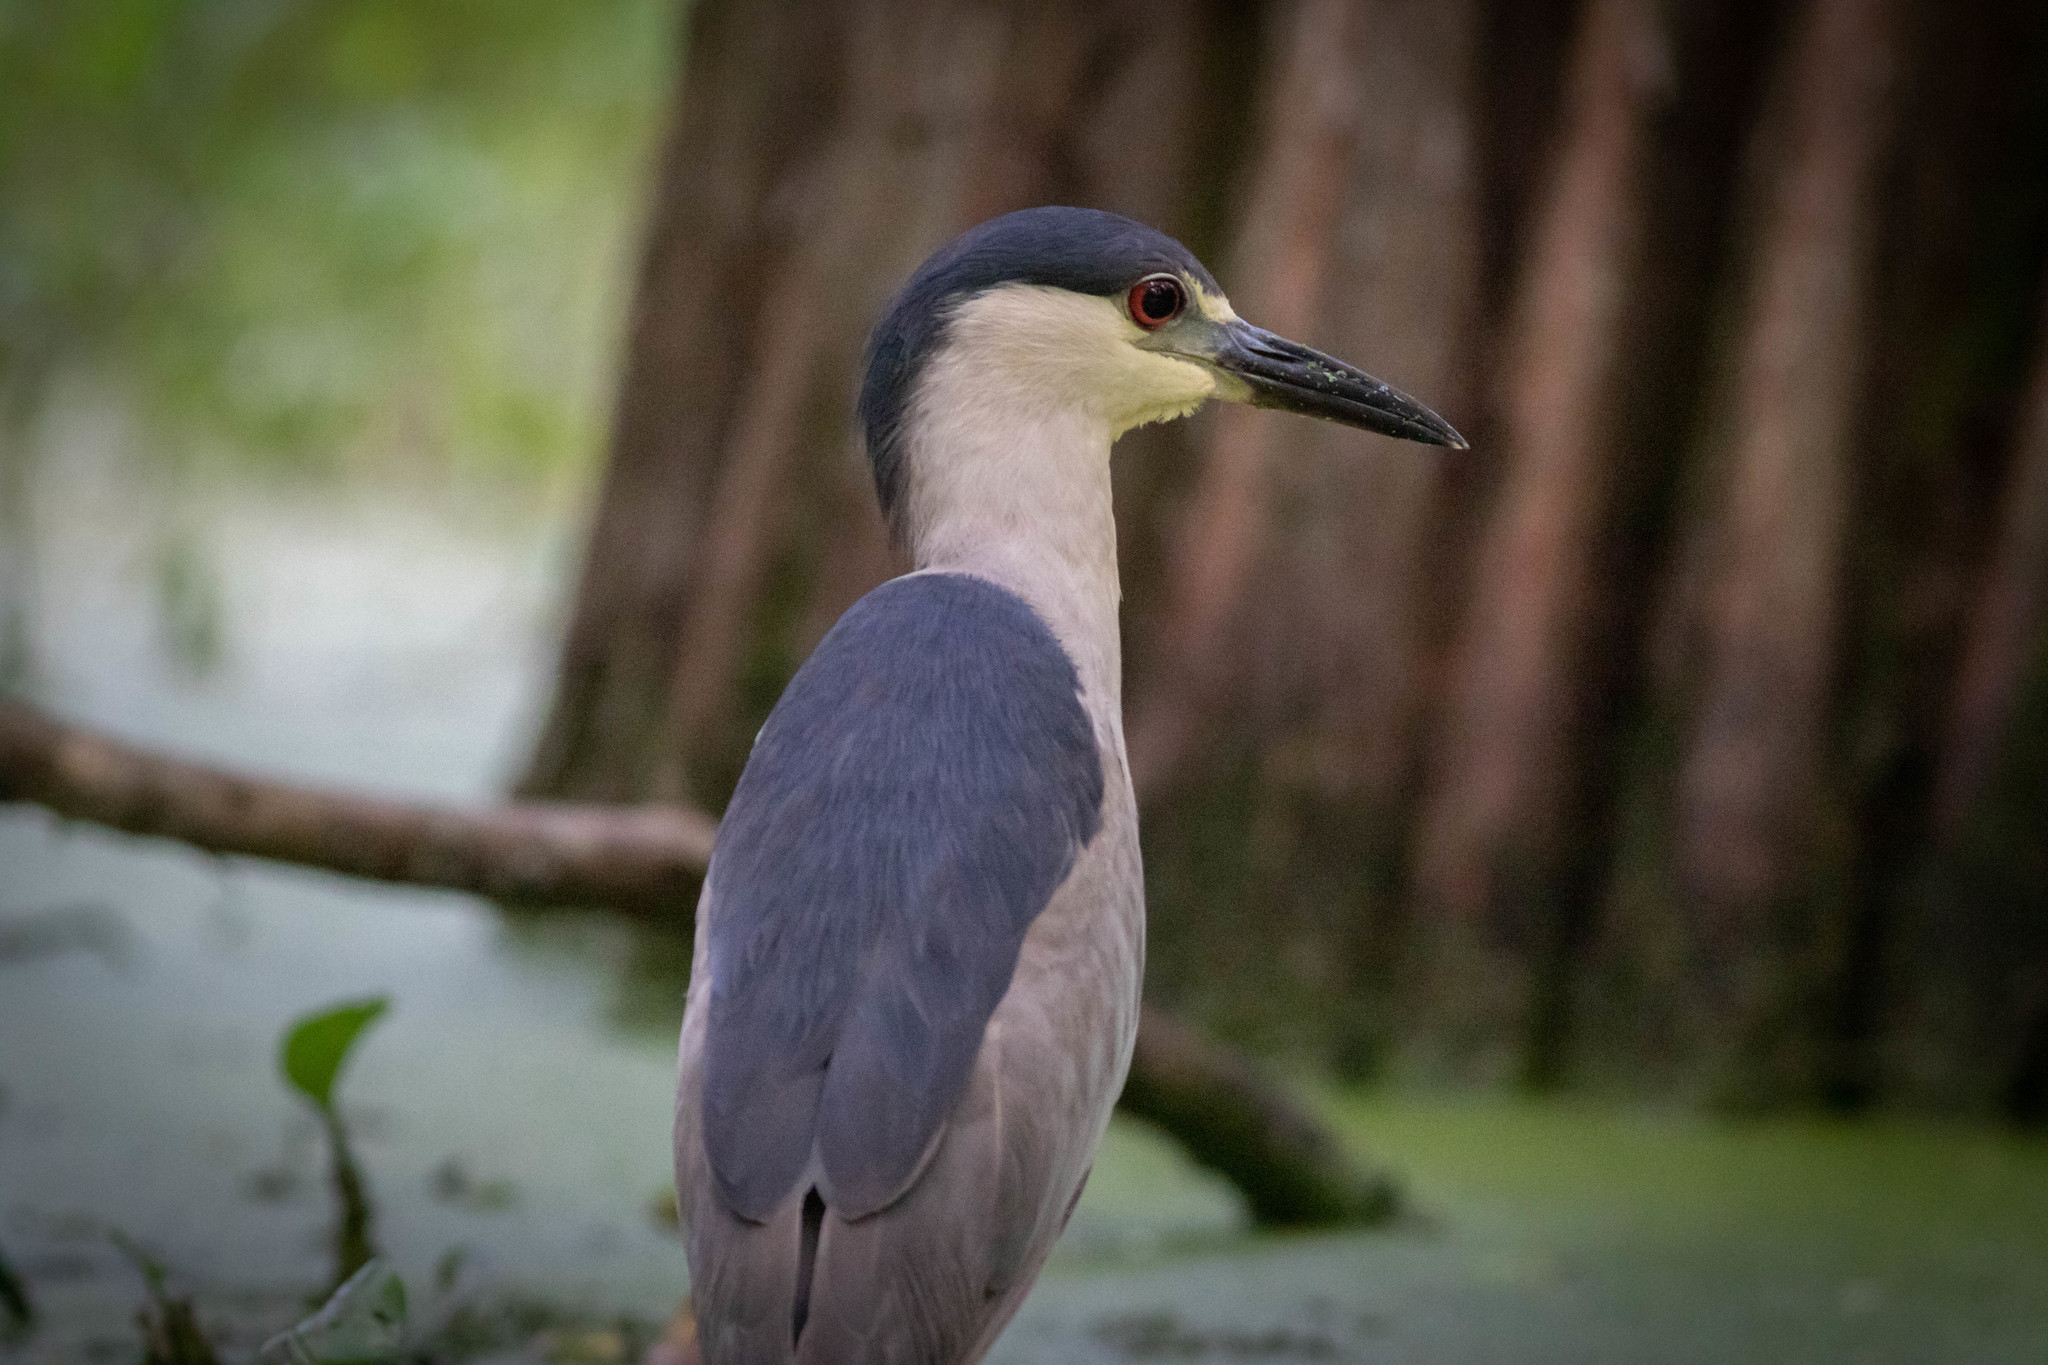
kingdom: Animalia
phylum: Chordata
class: Aves
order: Pelecaniformes
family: Ardeidae
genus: Nycticorax
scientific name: Nycticorax nycticorax
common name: Black-crowned night heron
